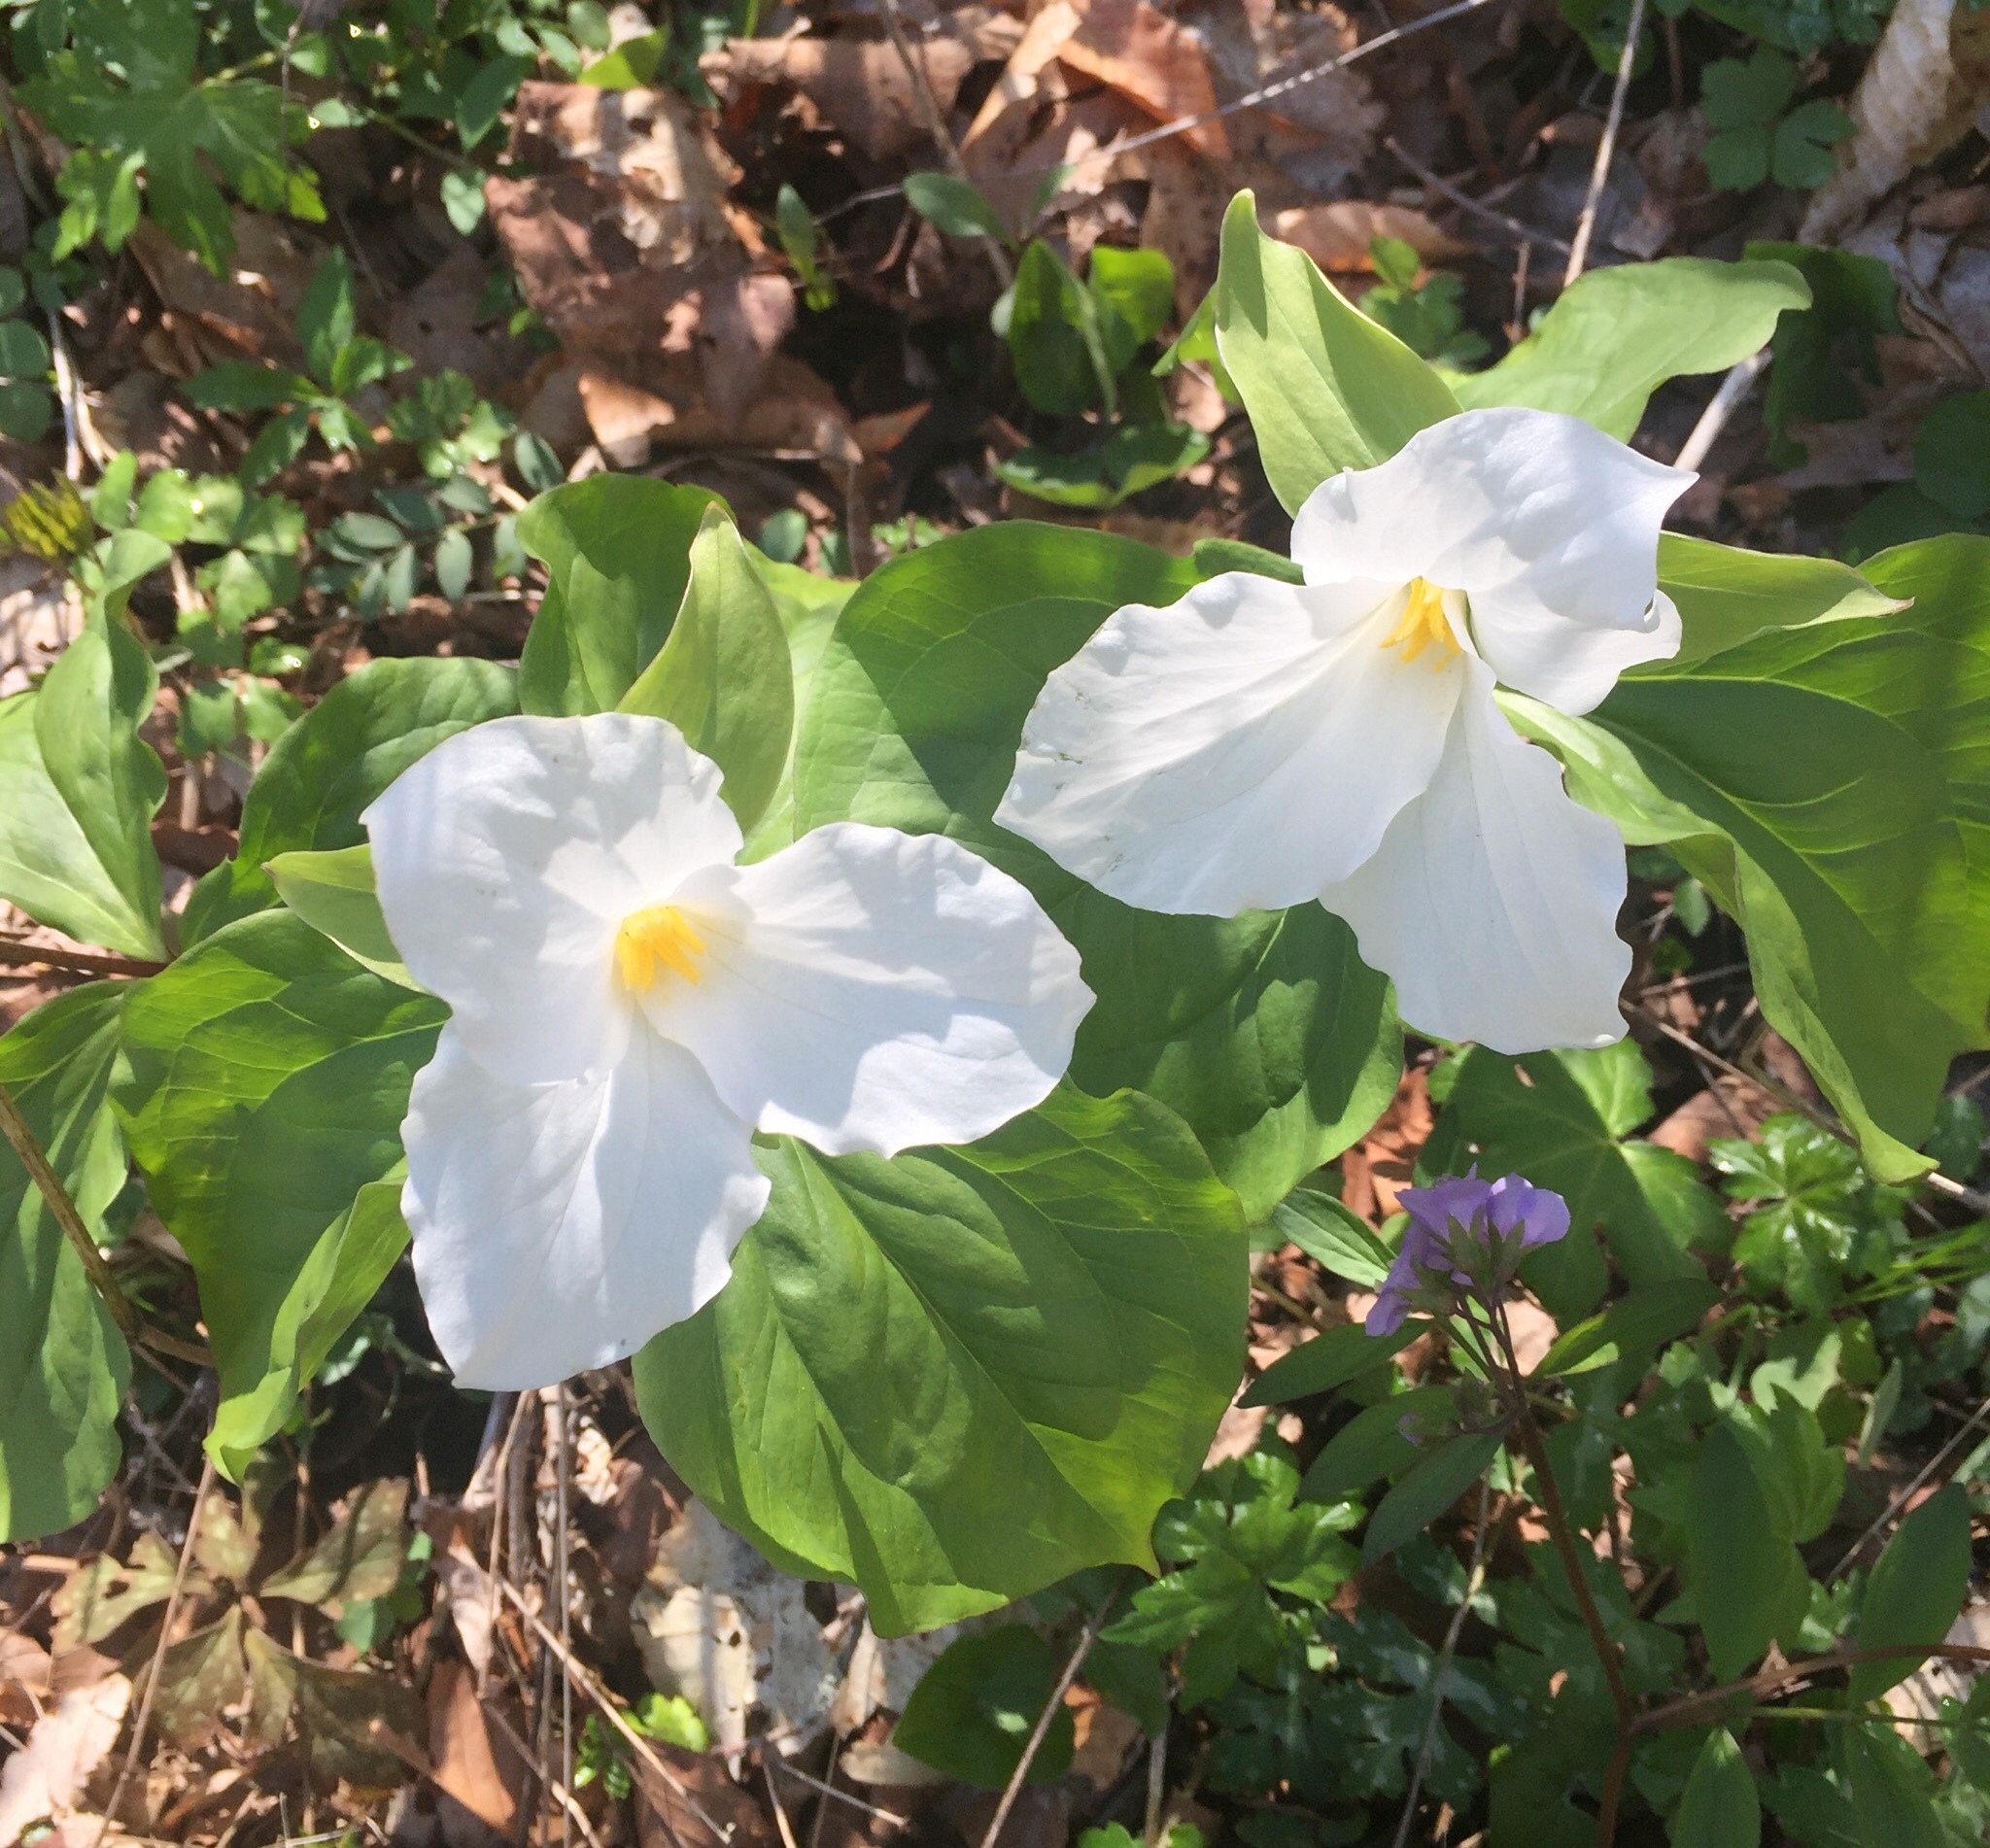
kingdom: Plantae
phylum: Tracheophyta
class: Liliopsida
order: Liliales
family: Melanthiaceae
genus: Trillium
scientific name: Trillium grandiflorum
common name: Great white trillium
